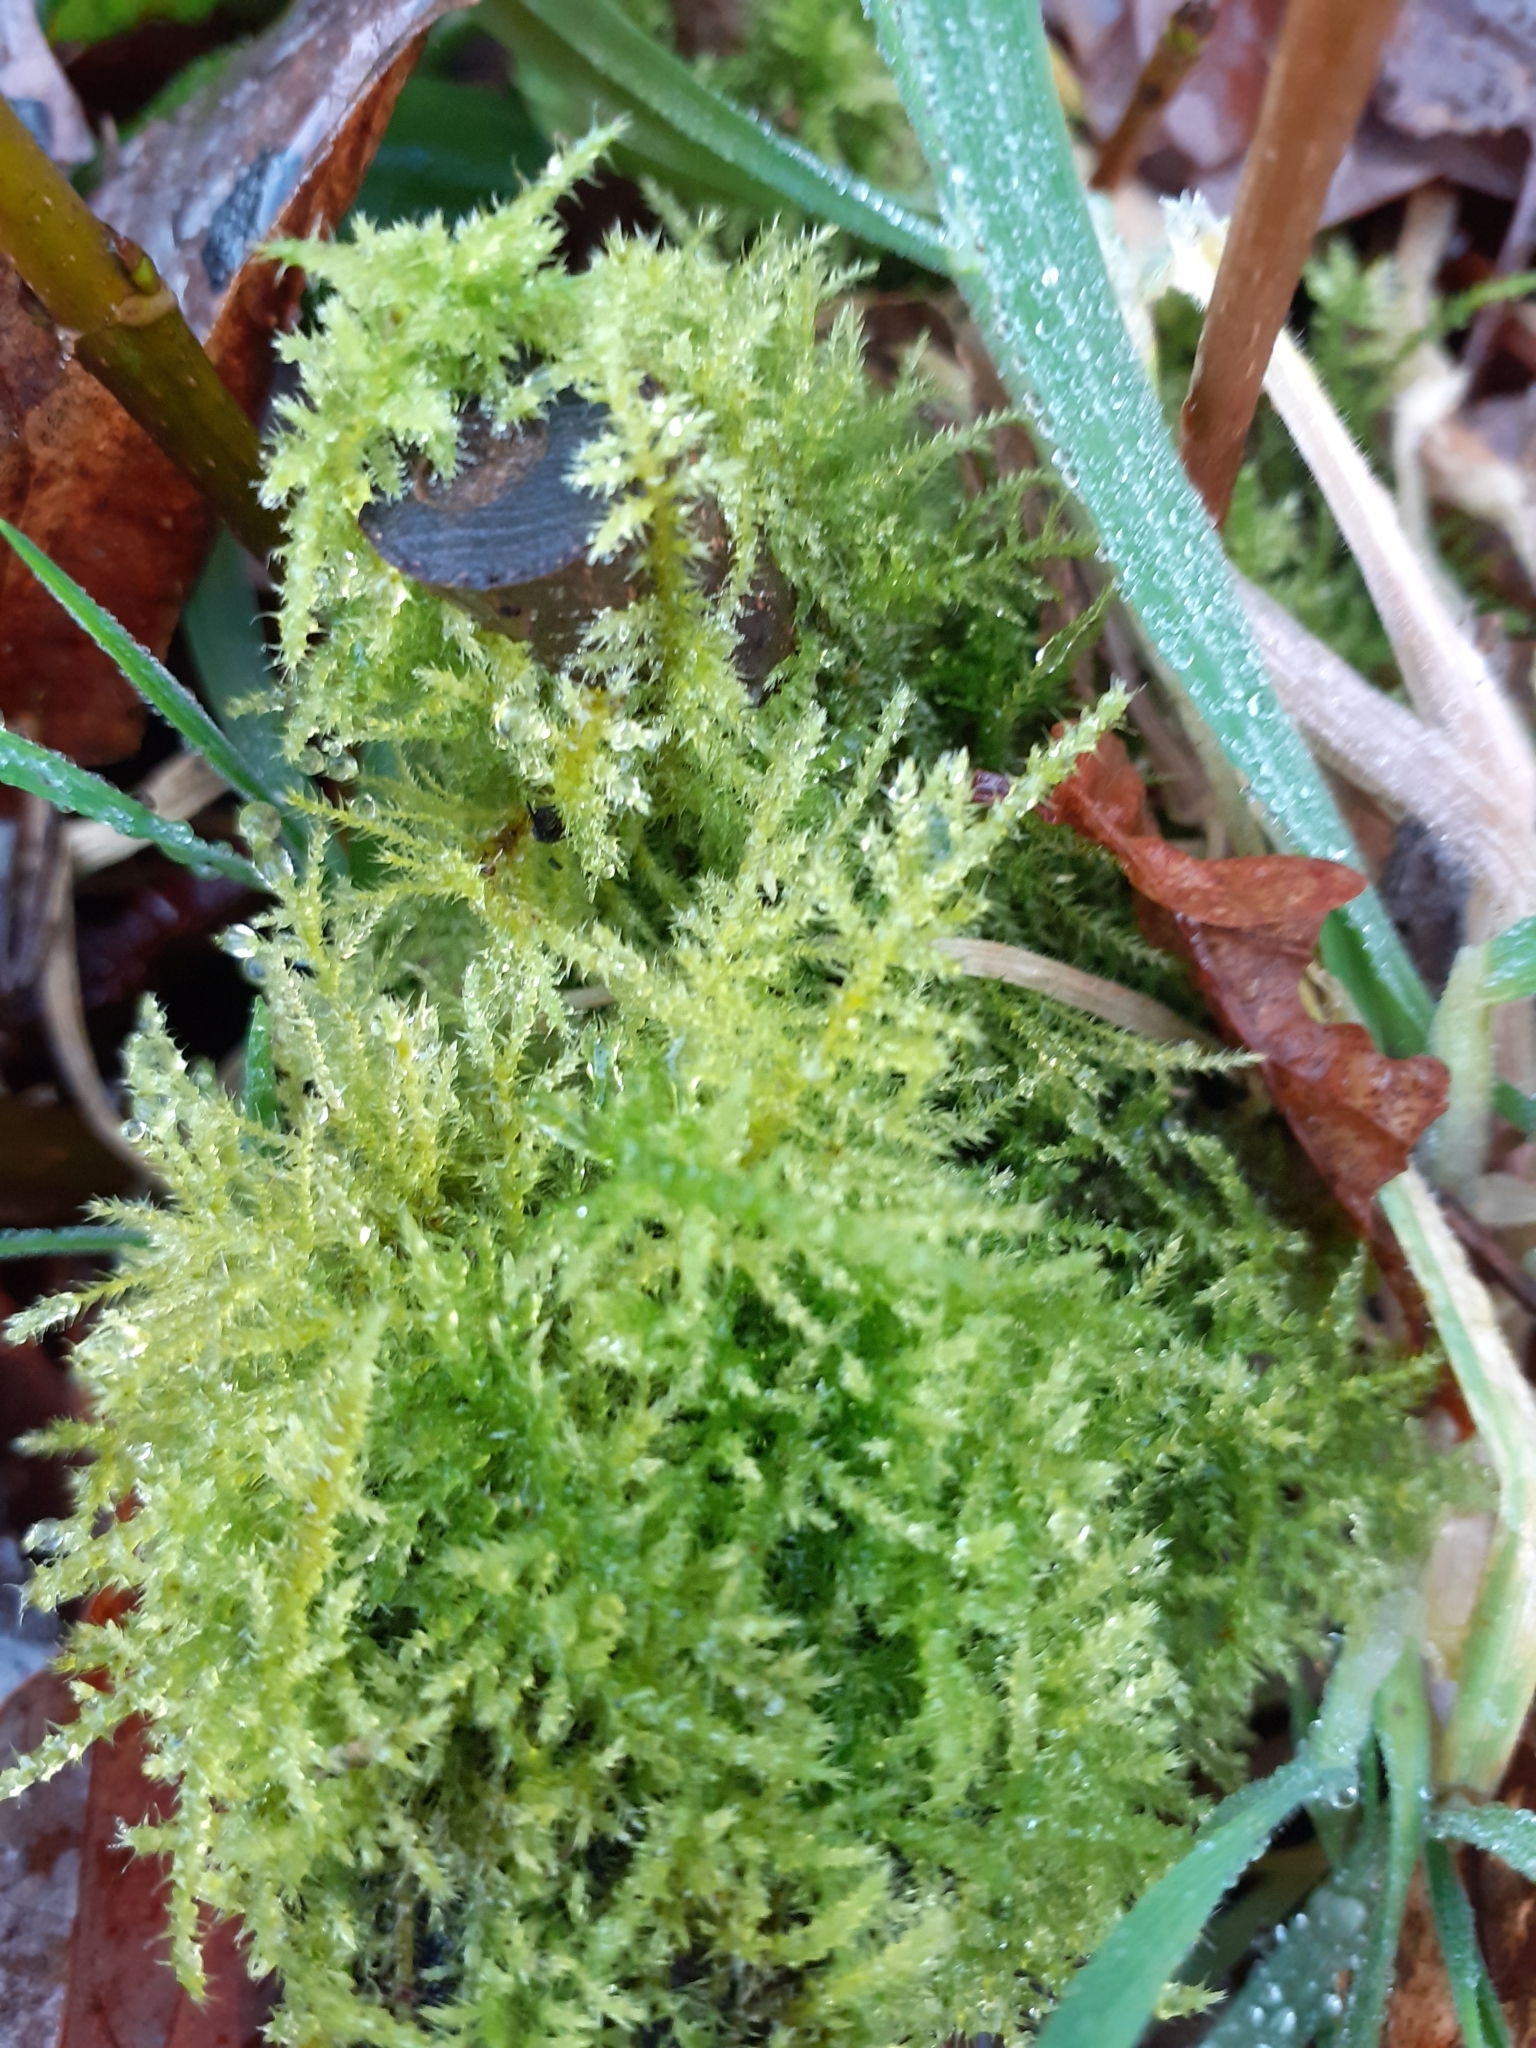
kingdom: Plantae
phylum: Bryophyta
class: Bryopsida
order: Hypnales
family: Brachytheciaceae
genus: Kindbergia
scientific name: Kindbergia praelonga
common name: Slender beaked moss
